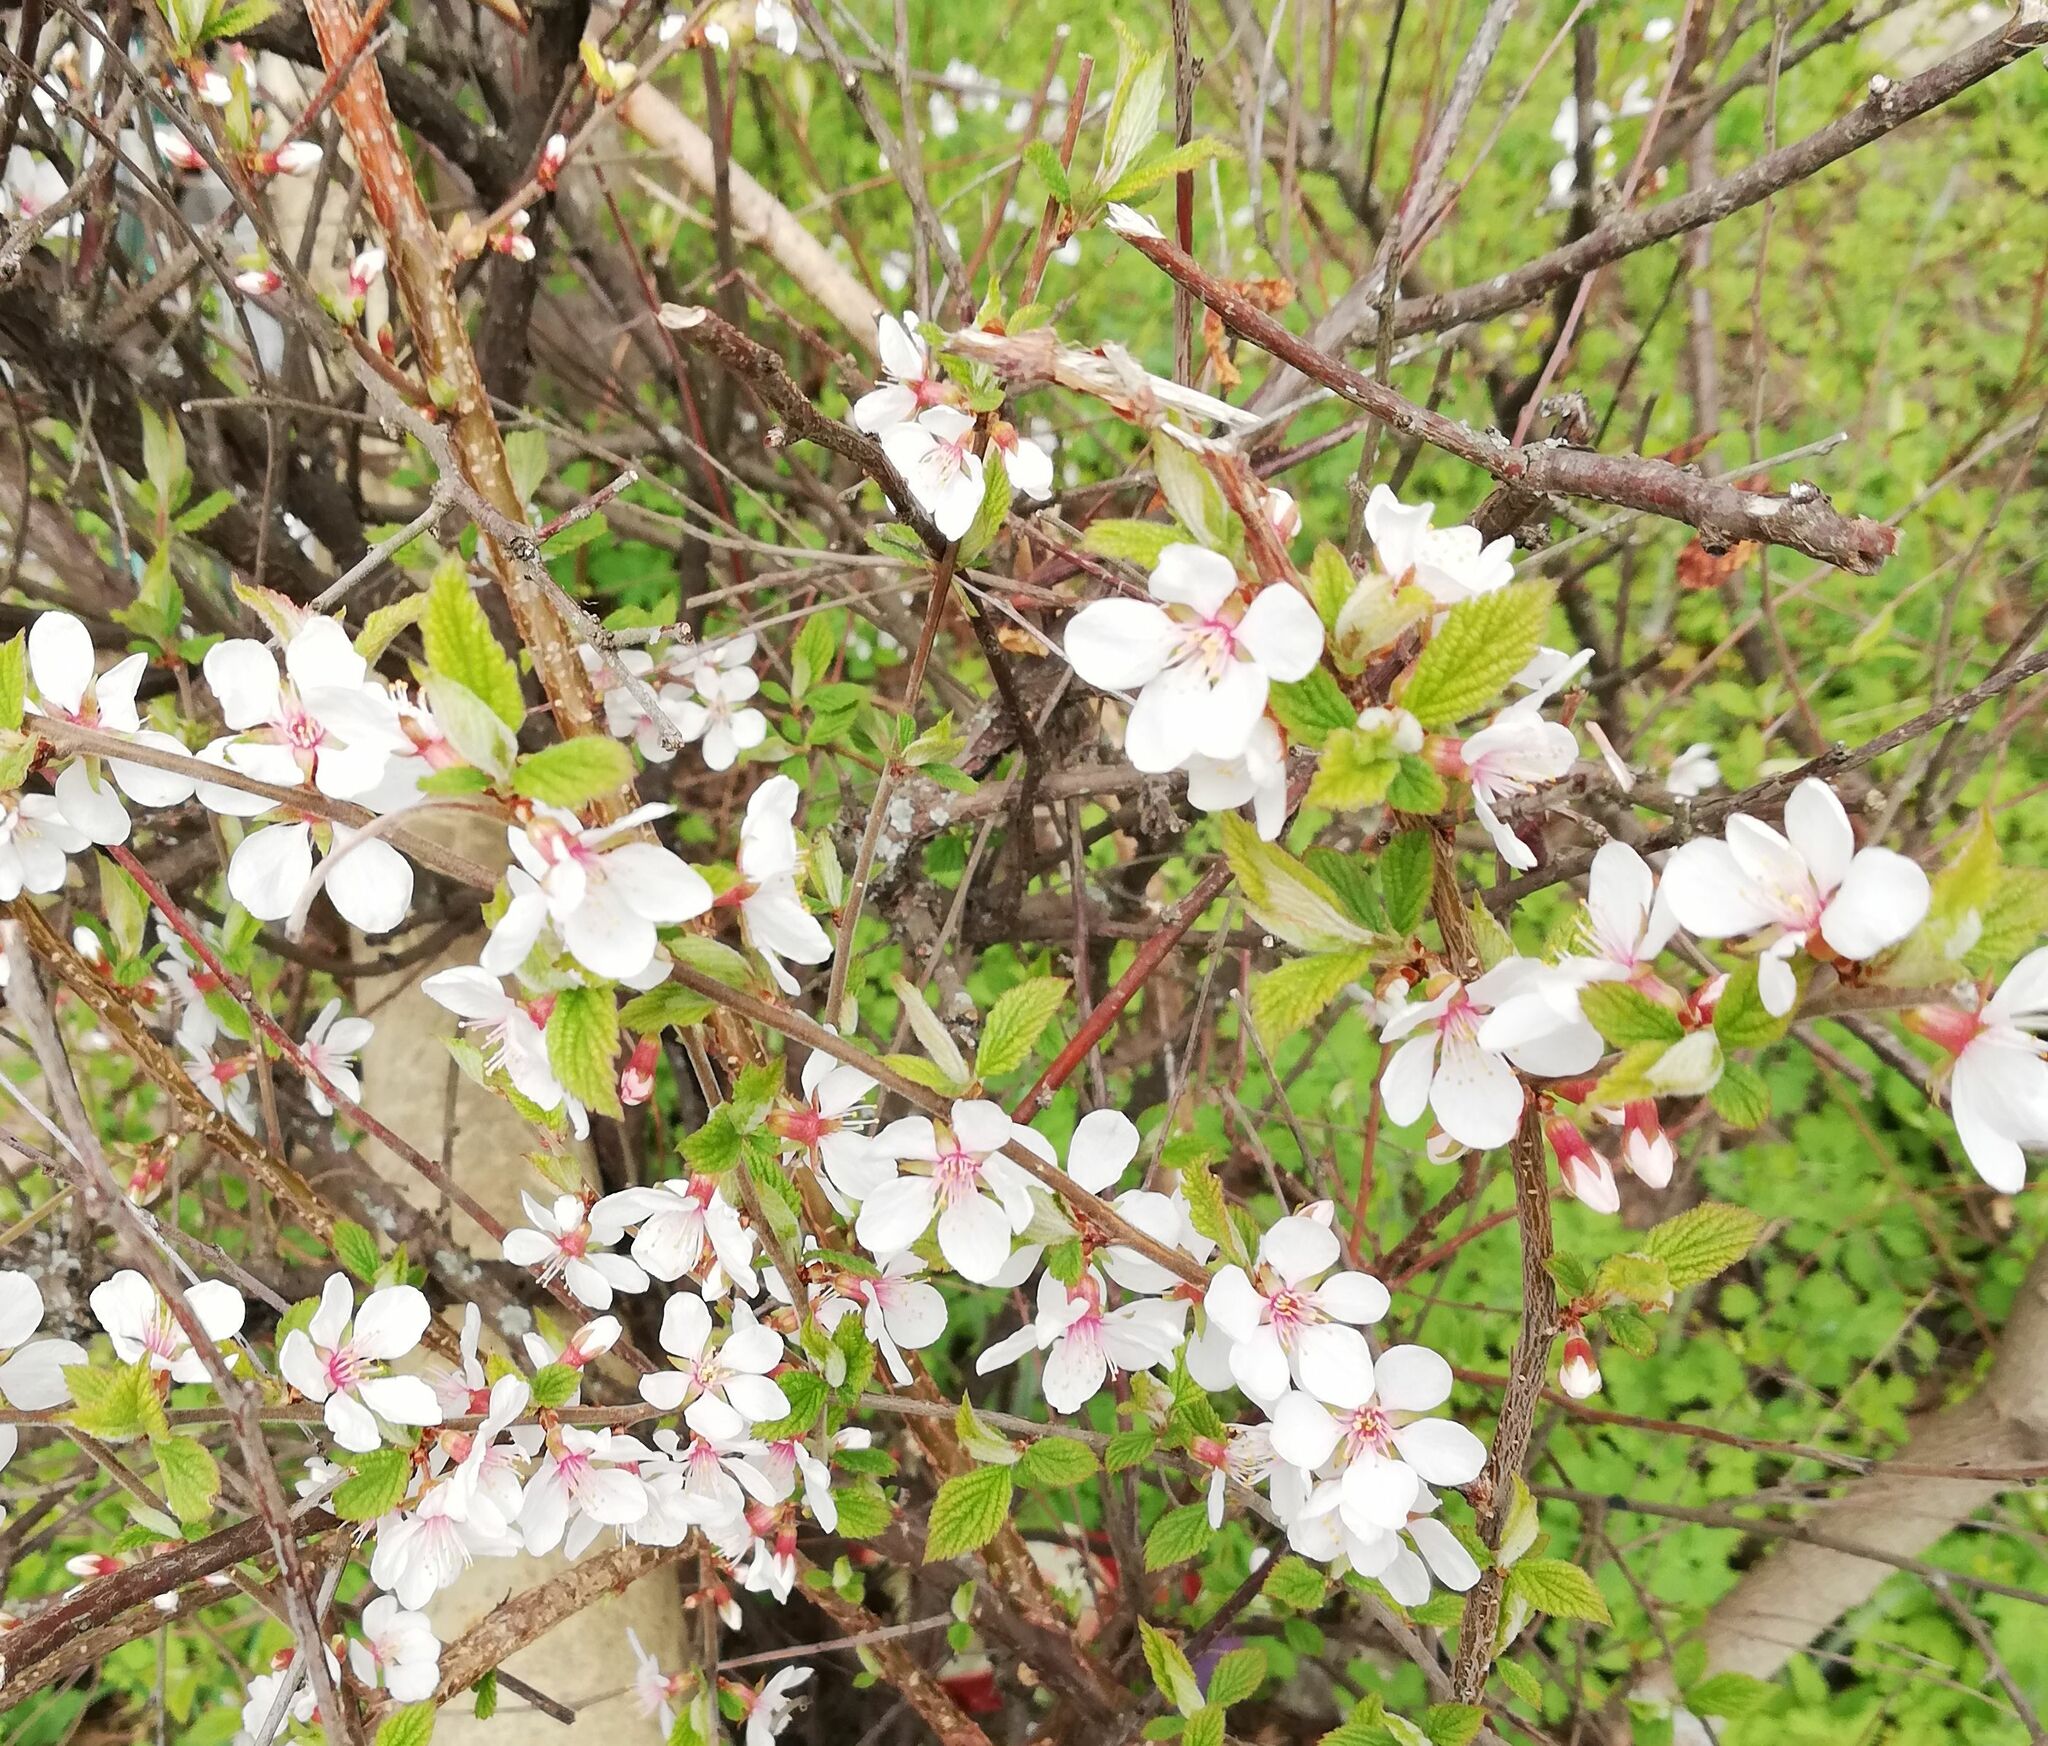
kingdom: Plantae
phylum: Tracheophyta
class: Magnoliopsida
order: Rosales
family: Rosaceae
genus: Prunus
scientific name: Prunus tomentosa
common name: Nanking cherry
